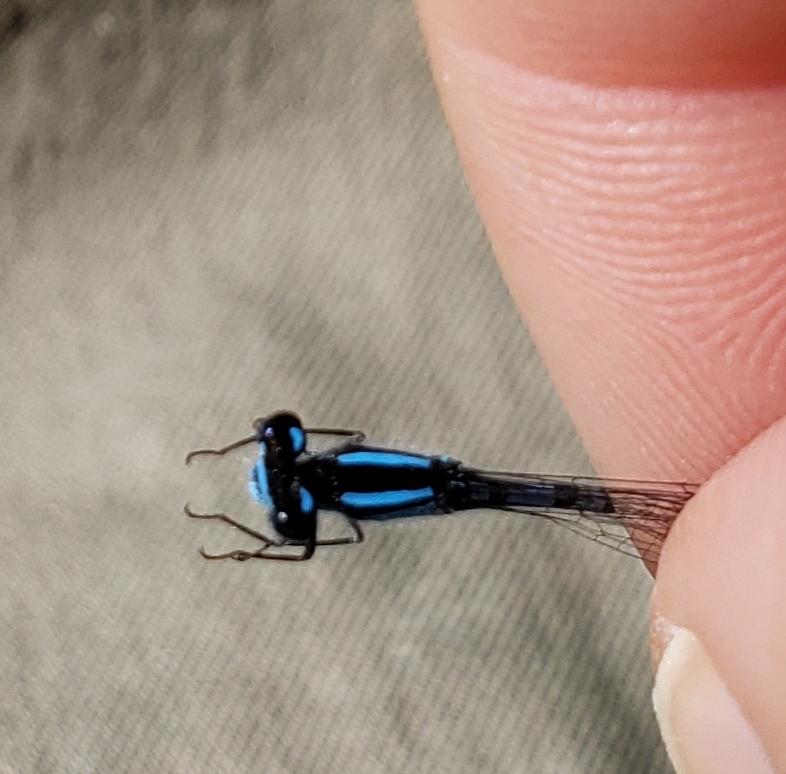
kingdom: Animalia
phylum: Arthropoda
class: Insecta
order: Odonata
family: Coenagrionidae
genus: Enallagma
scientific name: Enallagma laterale
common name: New england bluet
